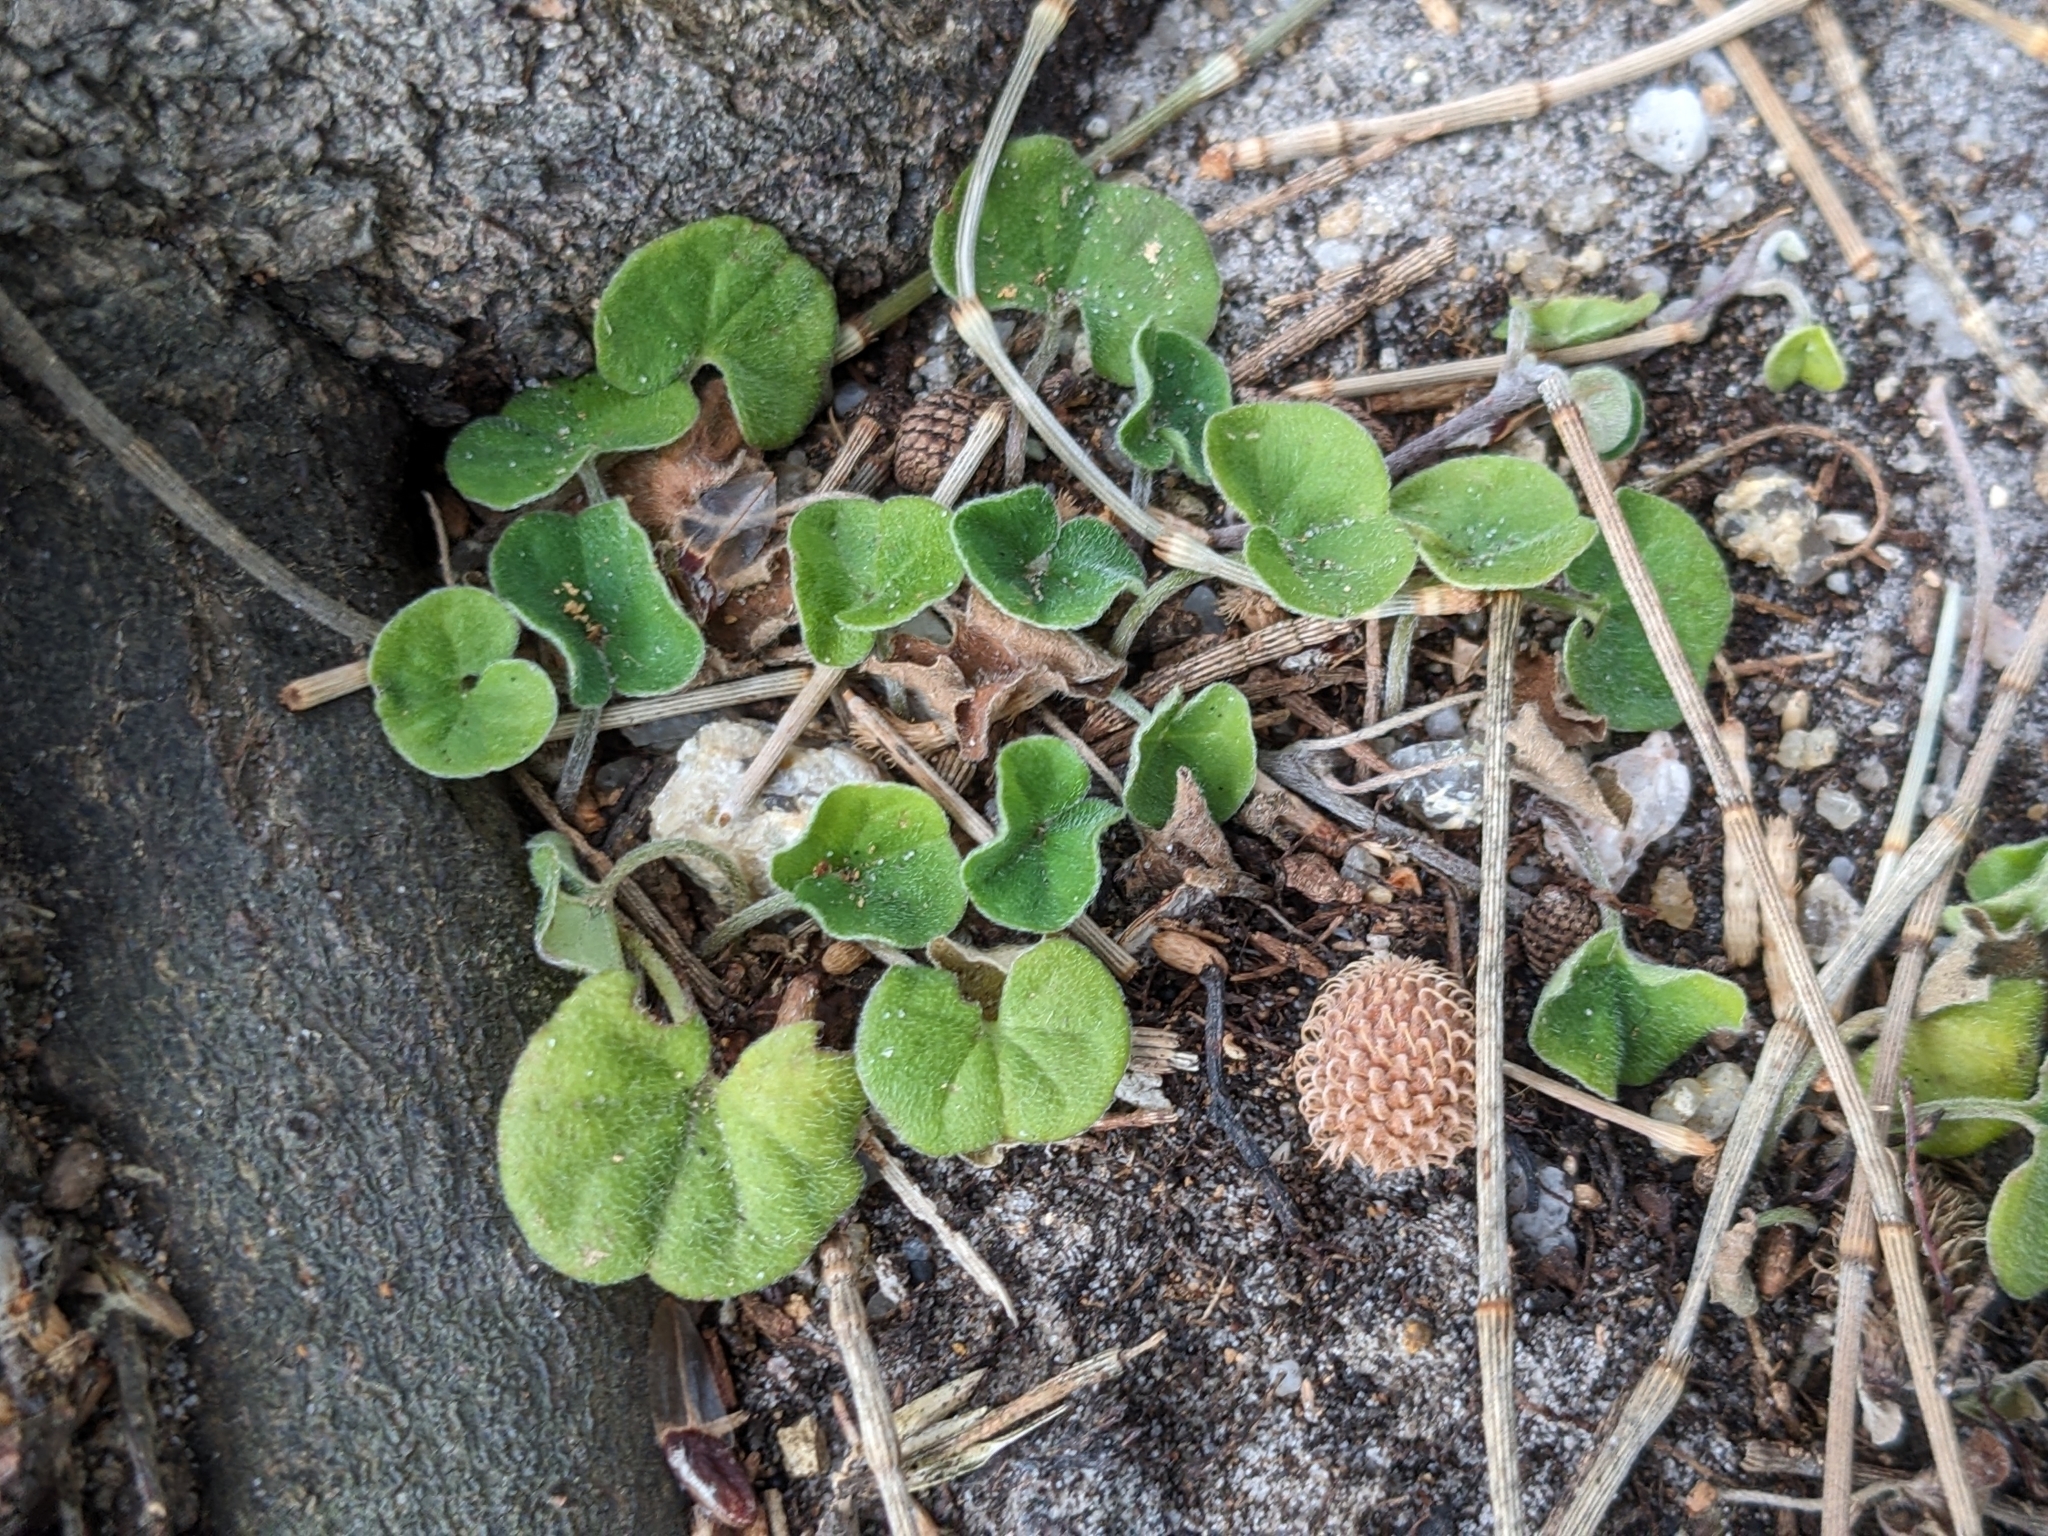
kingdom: Plantae
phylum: Tracheophyta
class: Magnoliopsida
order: Solanales
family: Convolvulaceae
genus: Dichondra
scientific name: Dichondra repens
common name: Kidneyweed
